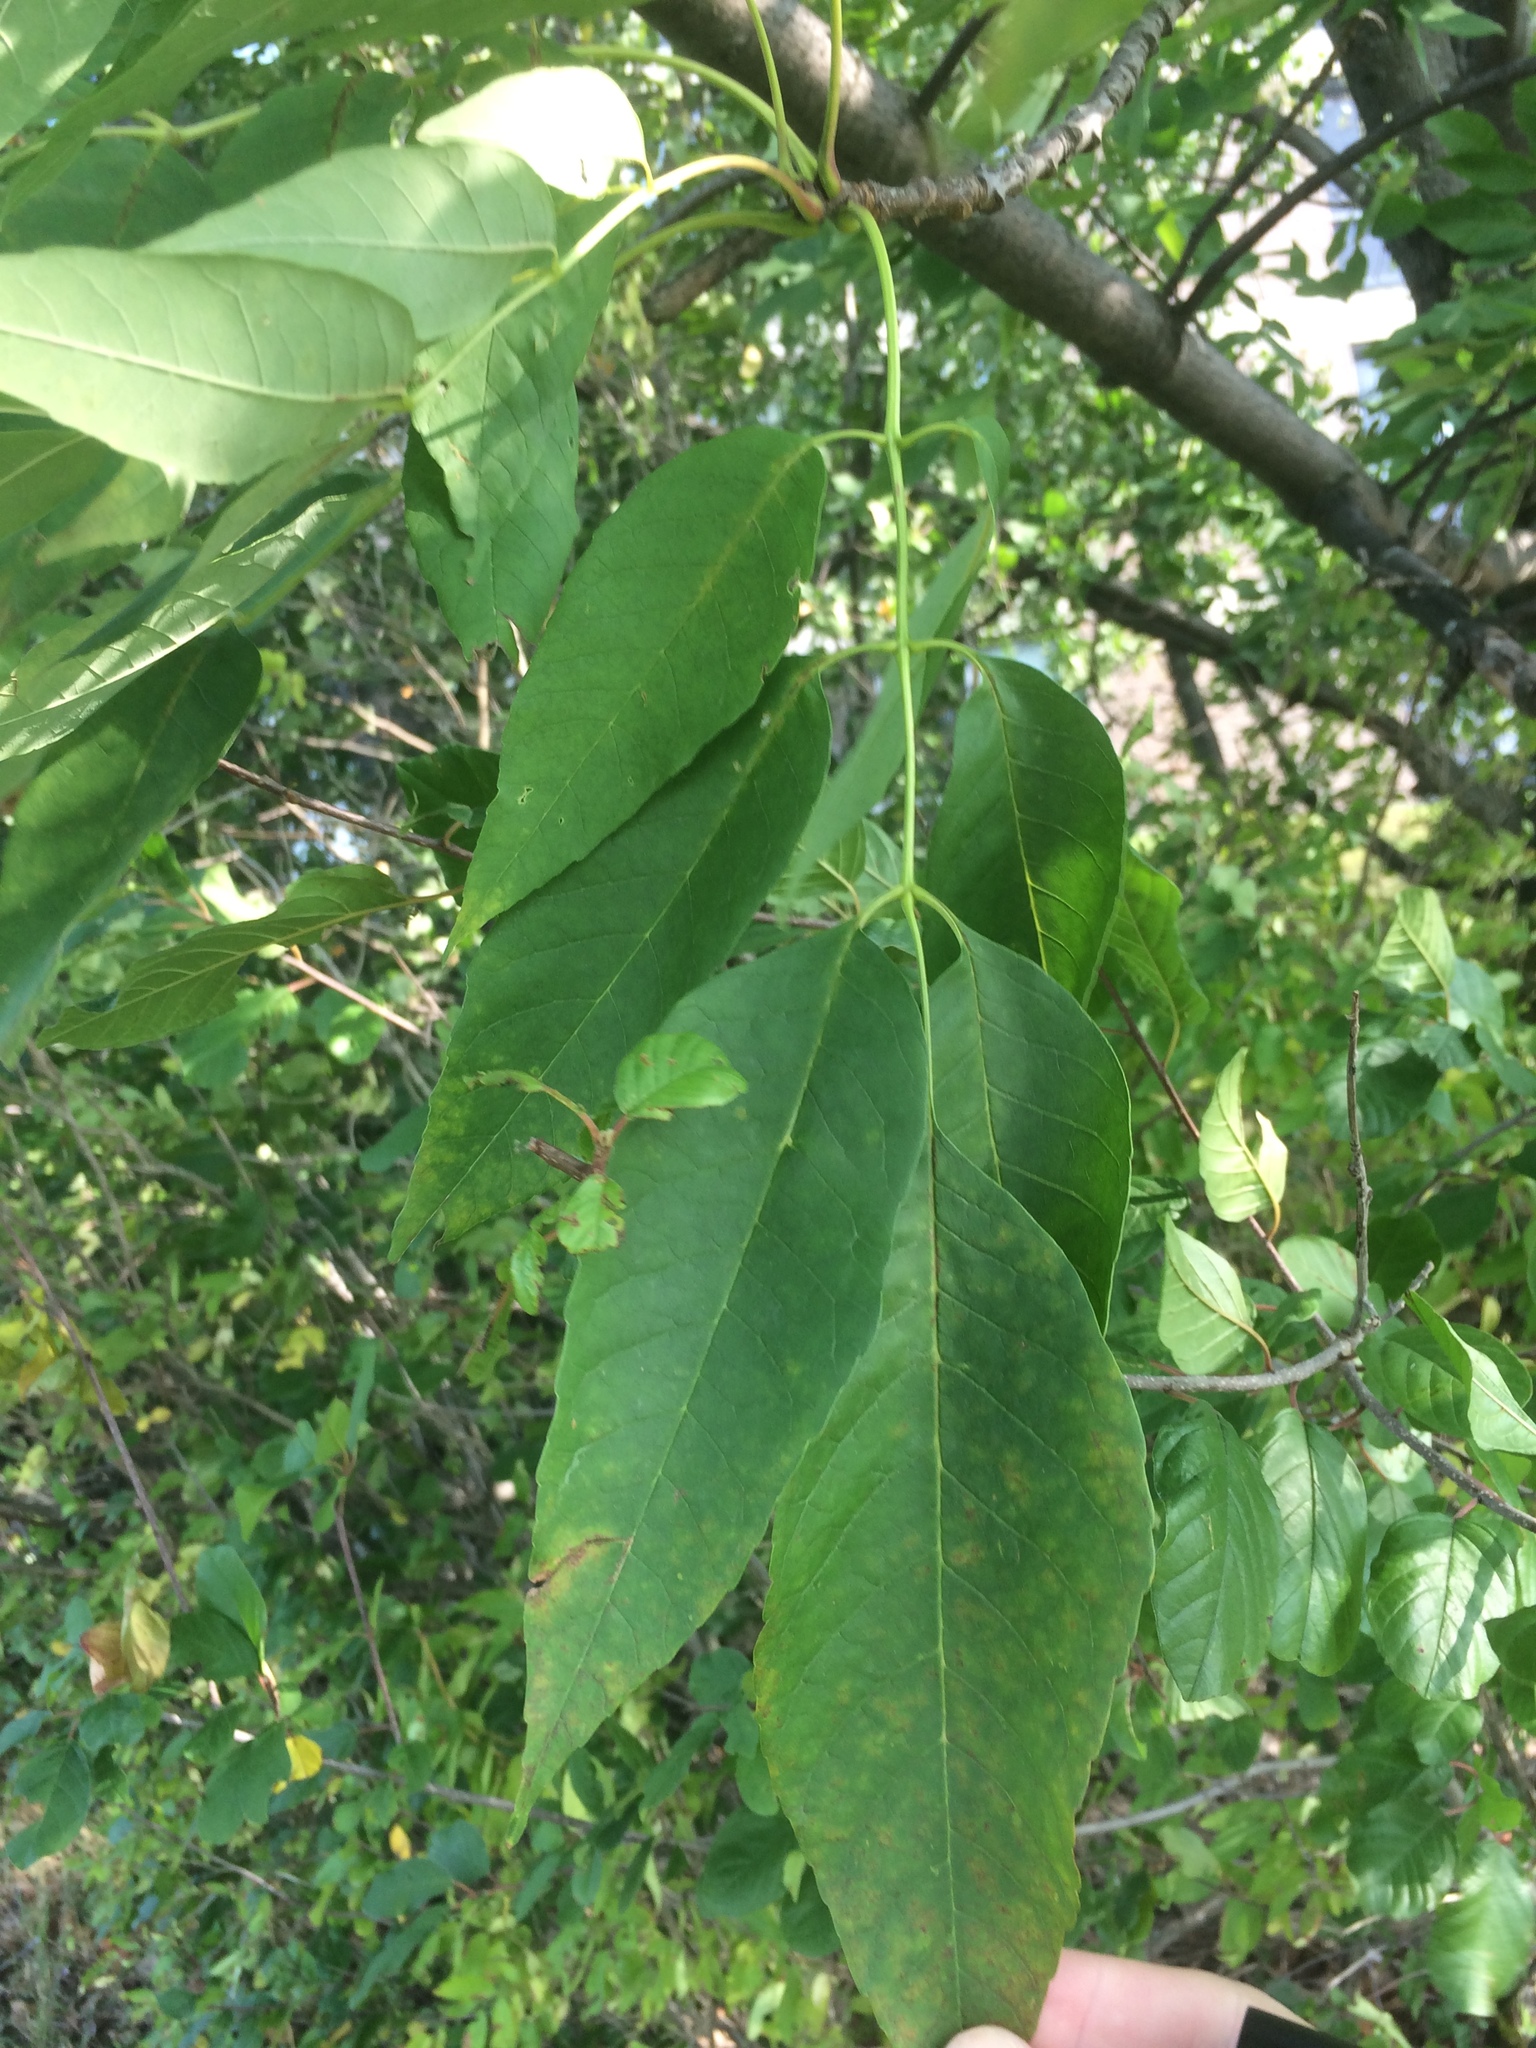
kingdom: Plantae
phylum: Tracheophyta
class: Magnoliopsida
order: Lamiales
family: Oleaceae
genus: Fraxinus
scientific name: Fraxinus americana
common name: White ash
